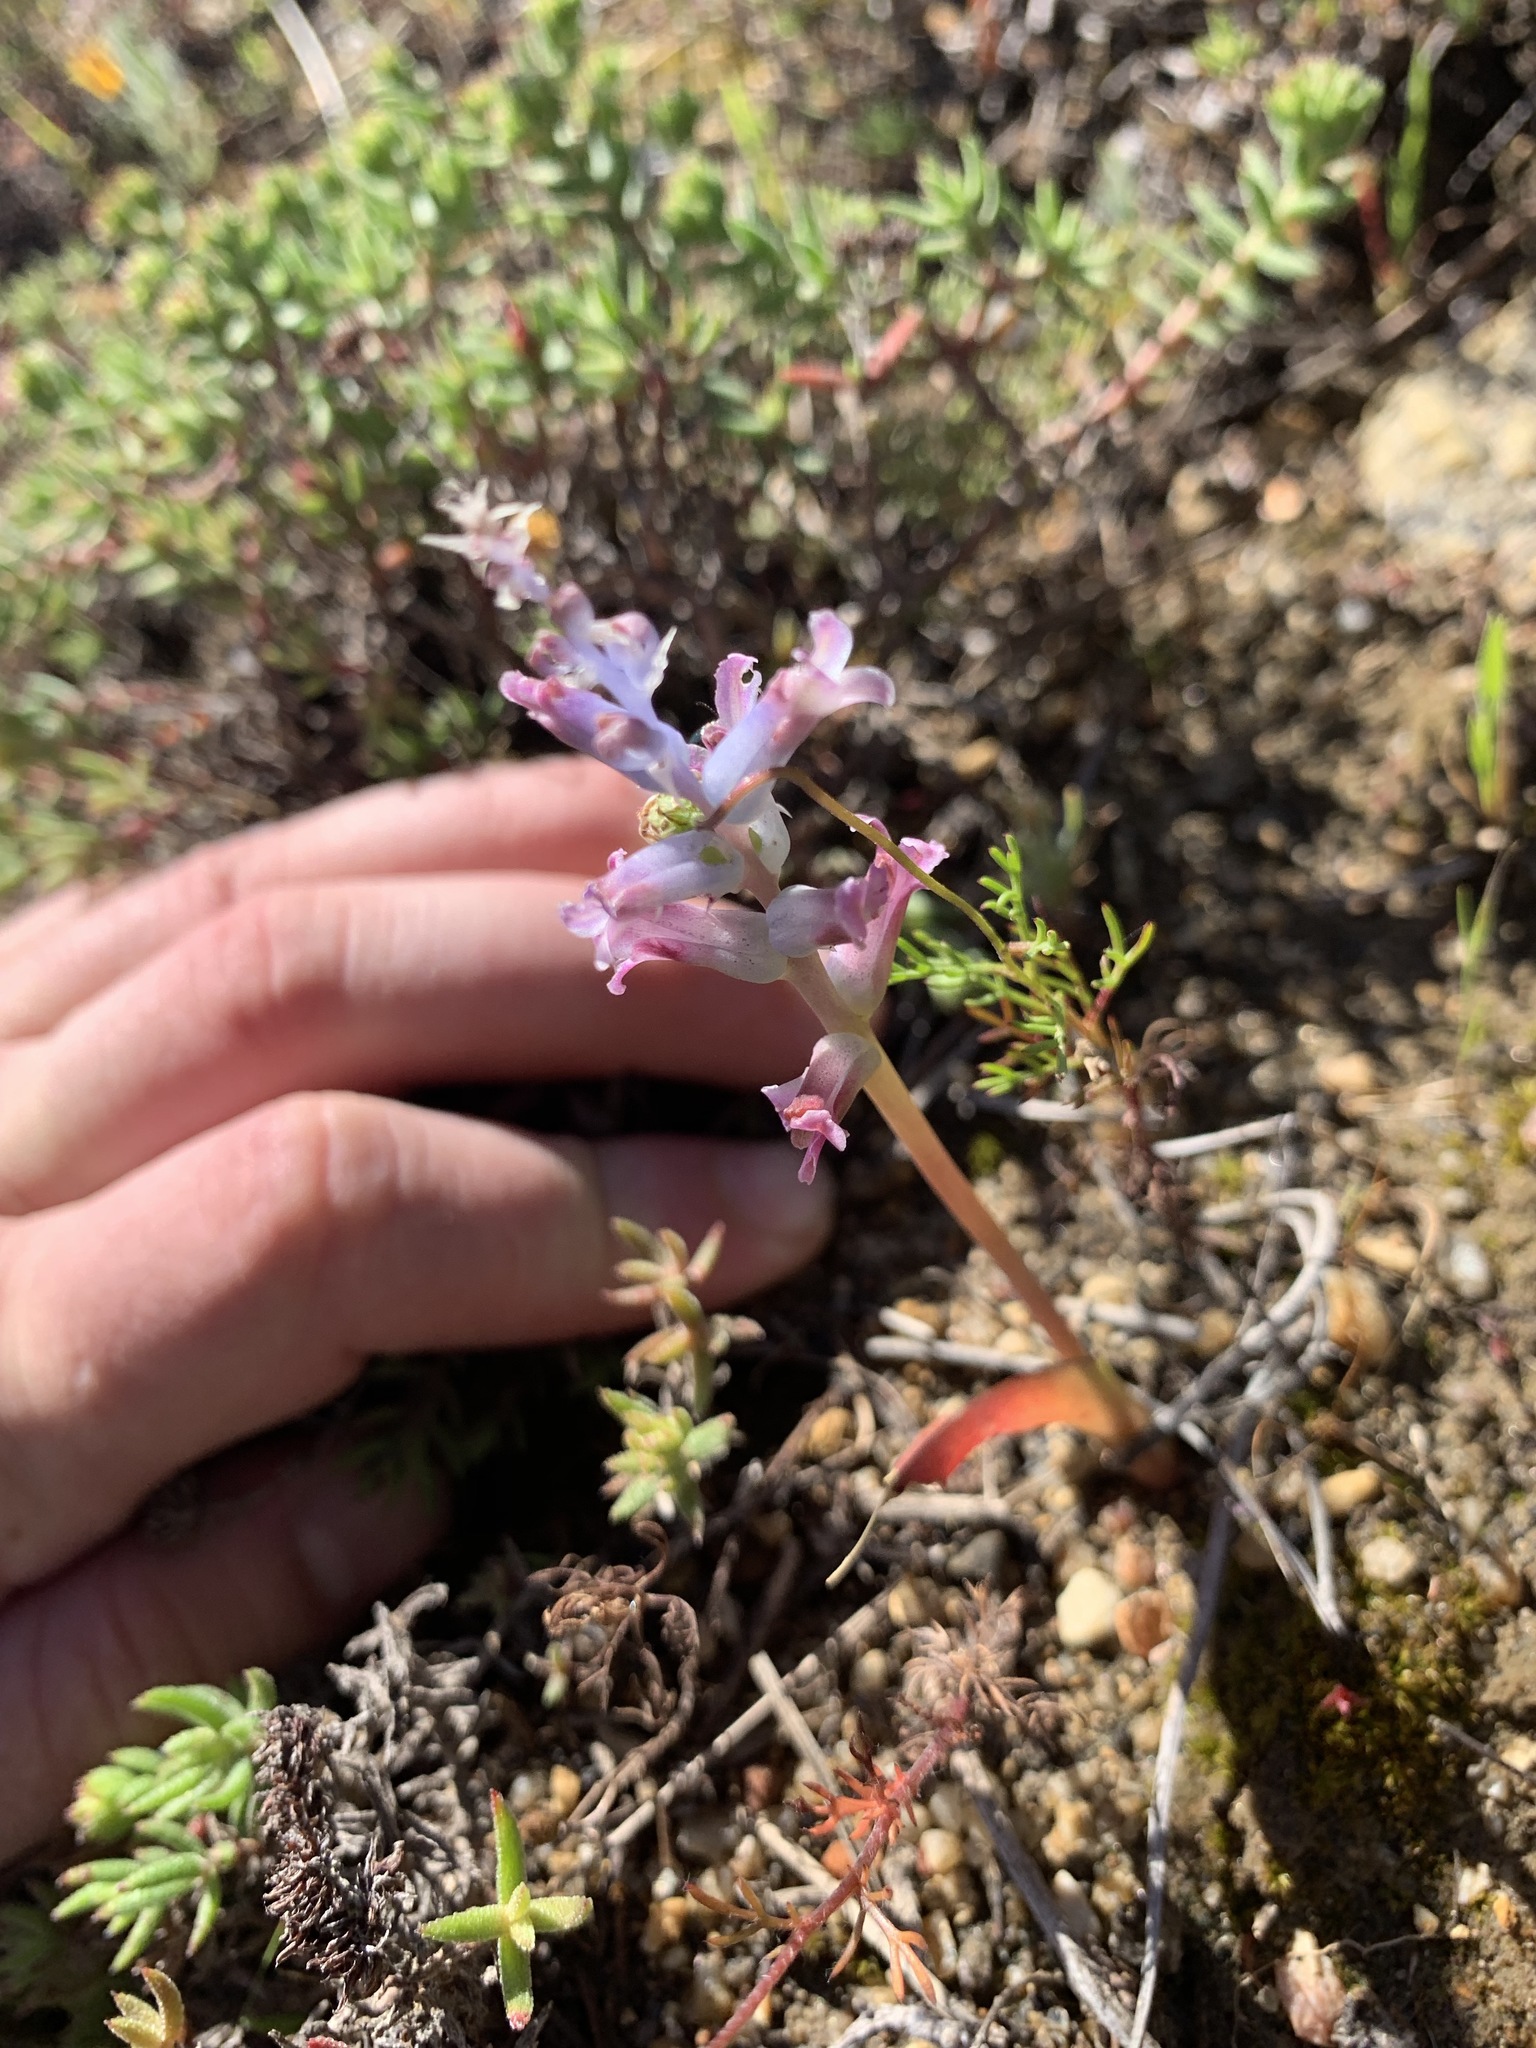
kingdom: Plantae
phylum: Tracheophyta
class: Liliopsida
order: Asparagales
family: Asparagaceae
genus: Lachenalia
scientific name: Lachenalia fistulosa
